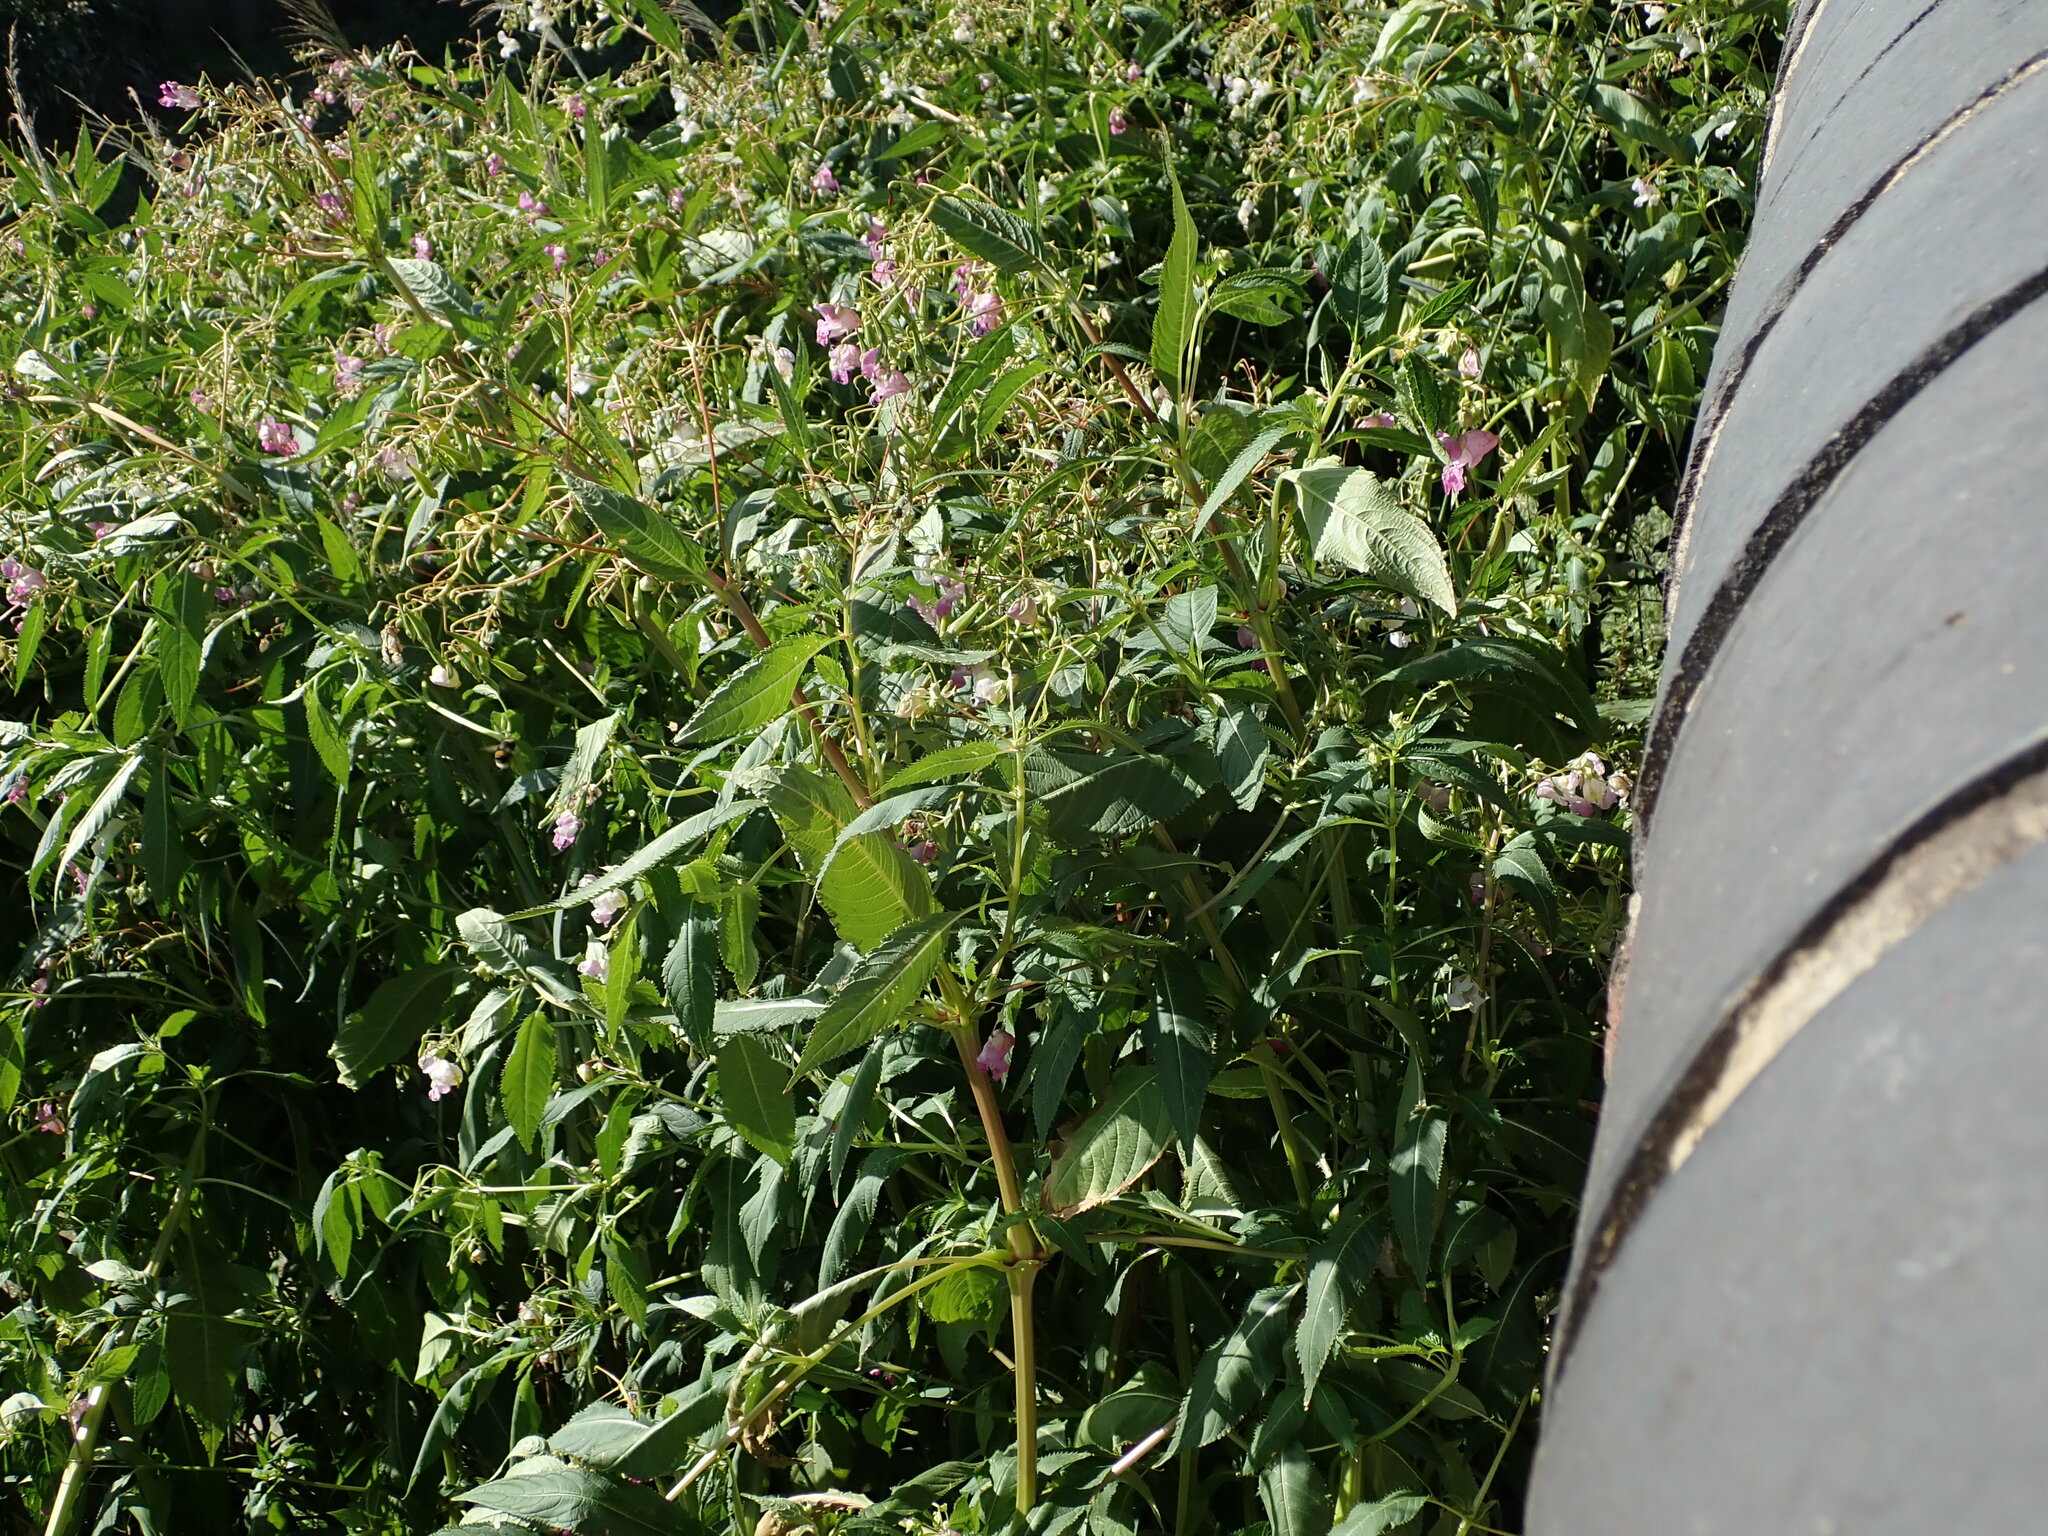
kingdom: Plantae
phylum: Tracheophyta
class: Magnoliopsida
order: Ericales
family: Balsaminaceae
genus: Impatiens
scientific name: Impatiens glandulifera
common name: Himalayan balsam
